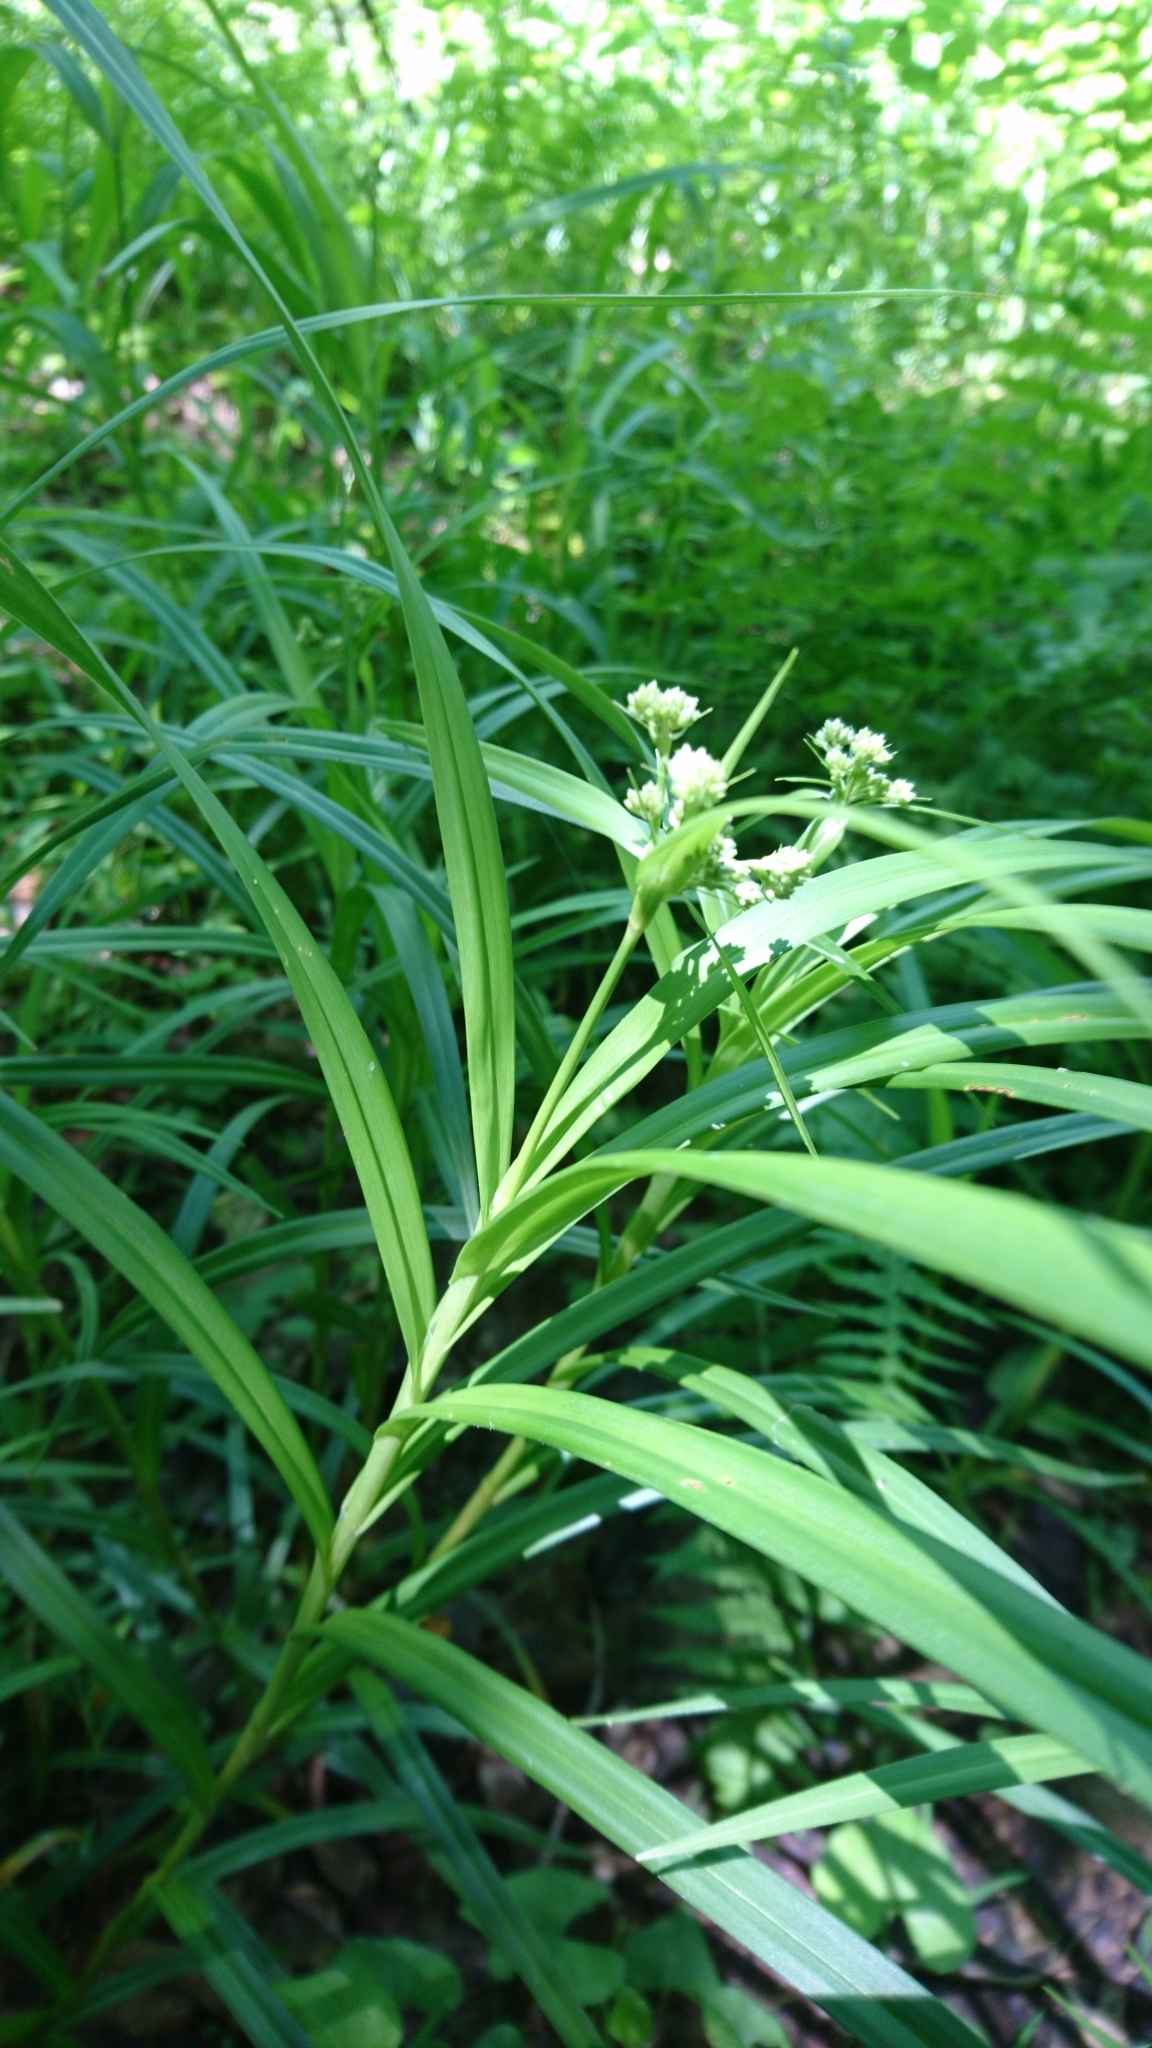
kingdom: Plantae
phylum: Tracheophyta
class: Liliopsida
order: Poales
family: Cyperaceae
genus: Scirpus
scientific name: Scirpus polyphyllus
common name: Leafy bulrush
